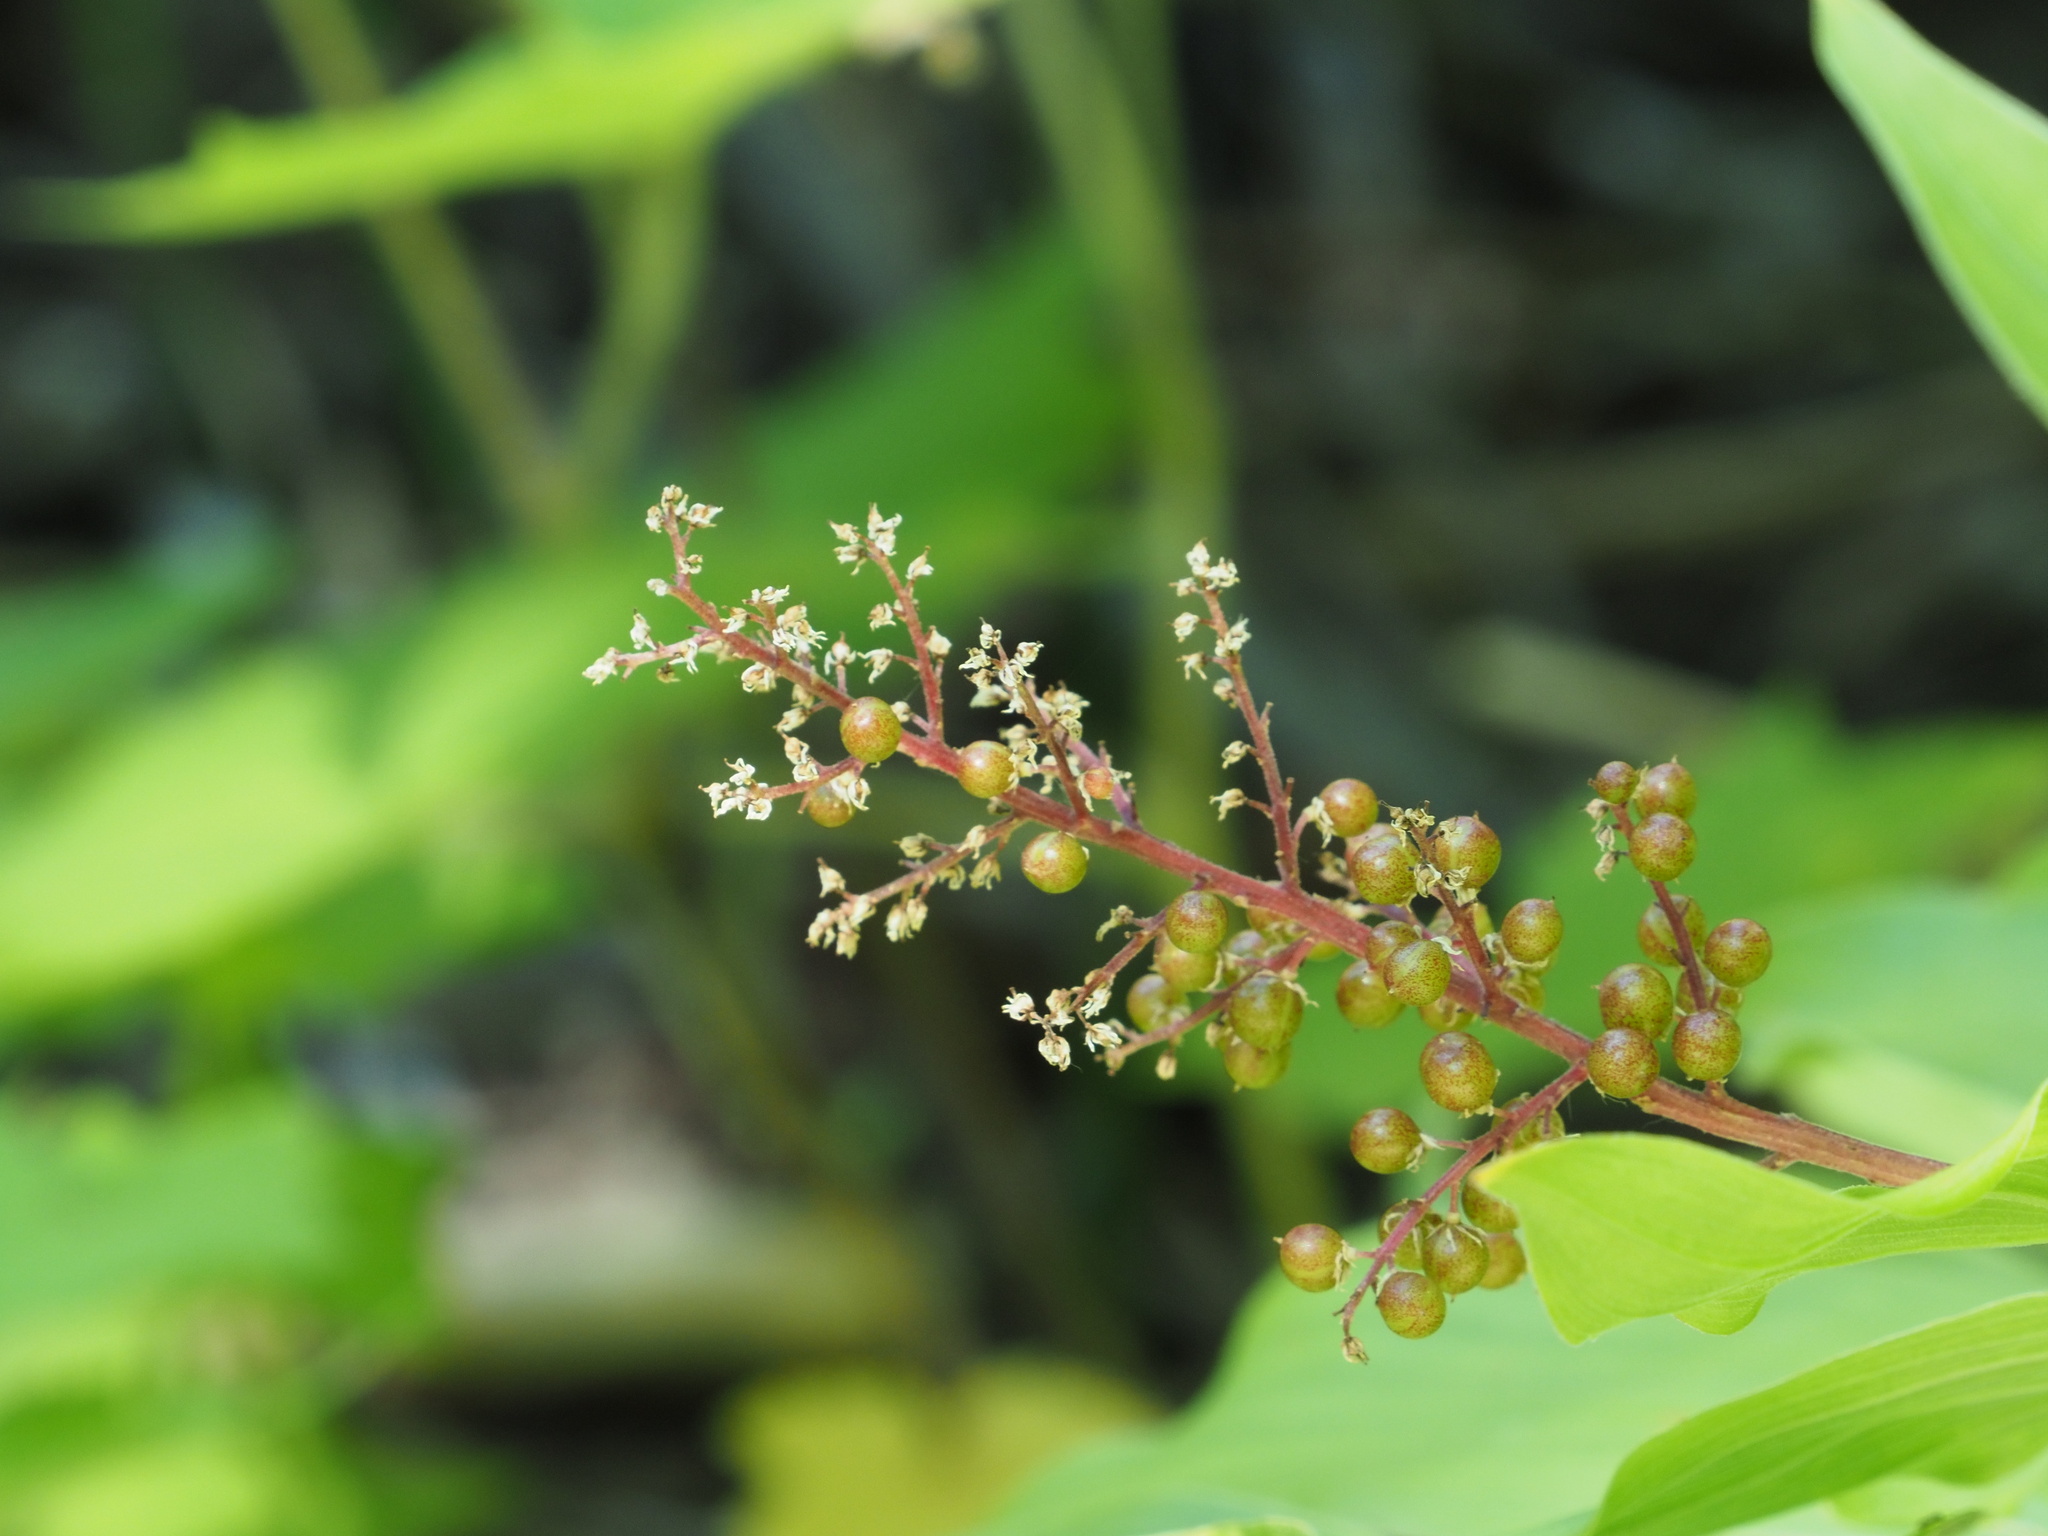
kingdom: Plantae
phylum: Tracheophyta
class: Liliopsida
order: Asparagales
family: Asparagaceae
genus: Maianthemum
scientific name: Maianthemum racemosum
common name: False spikenard
